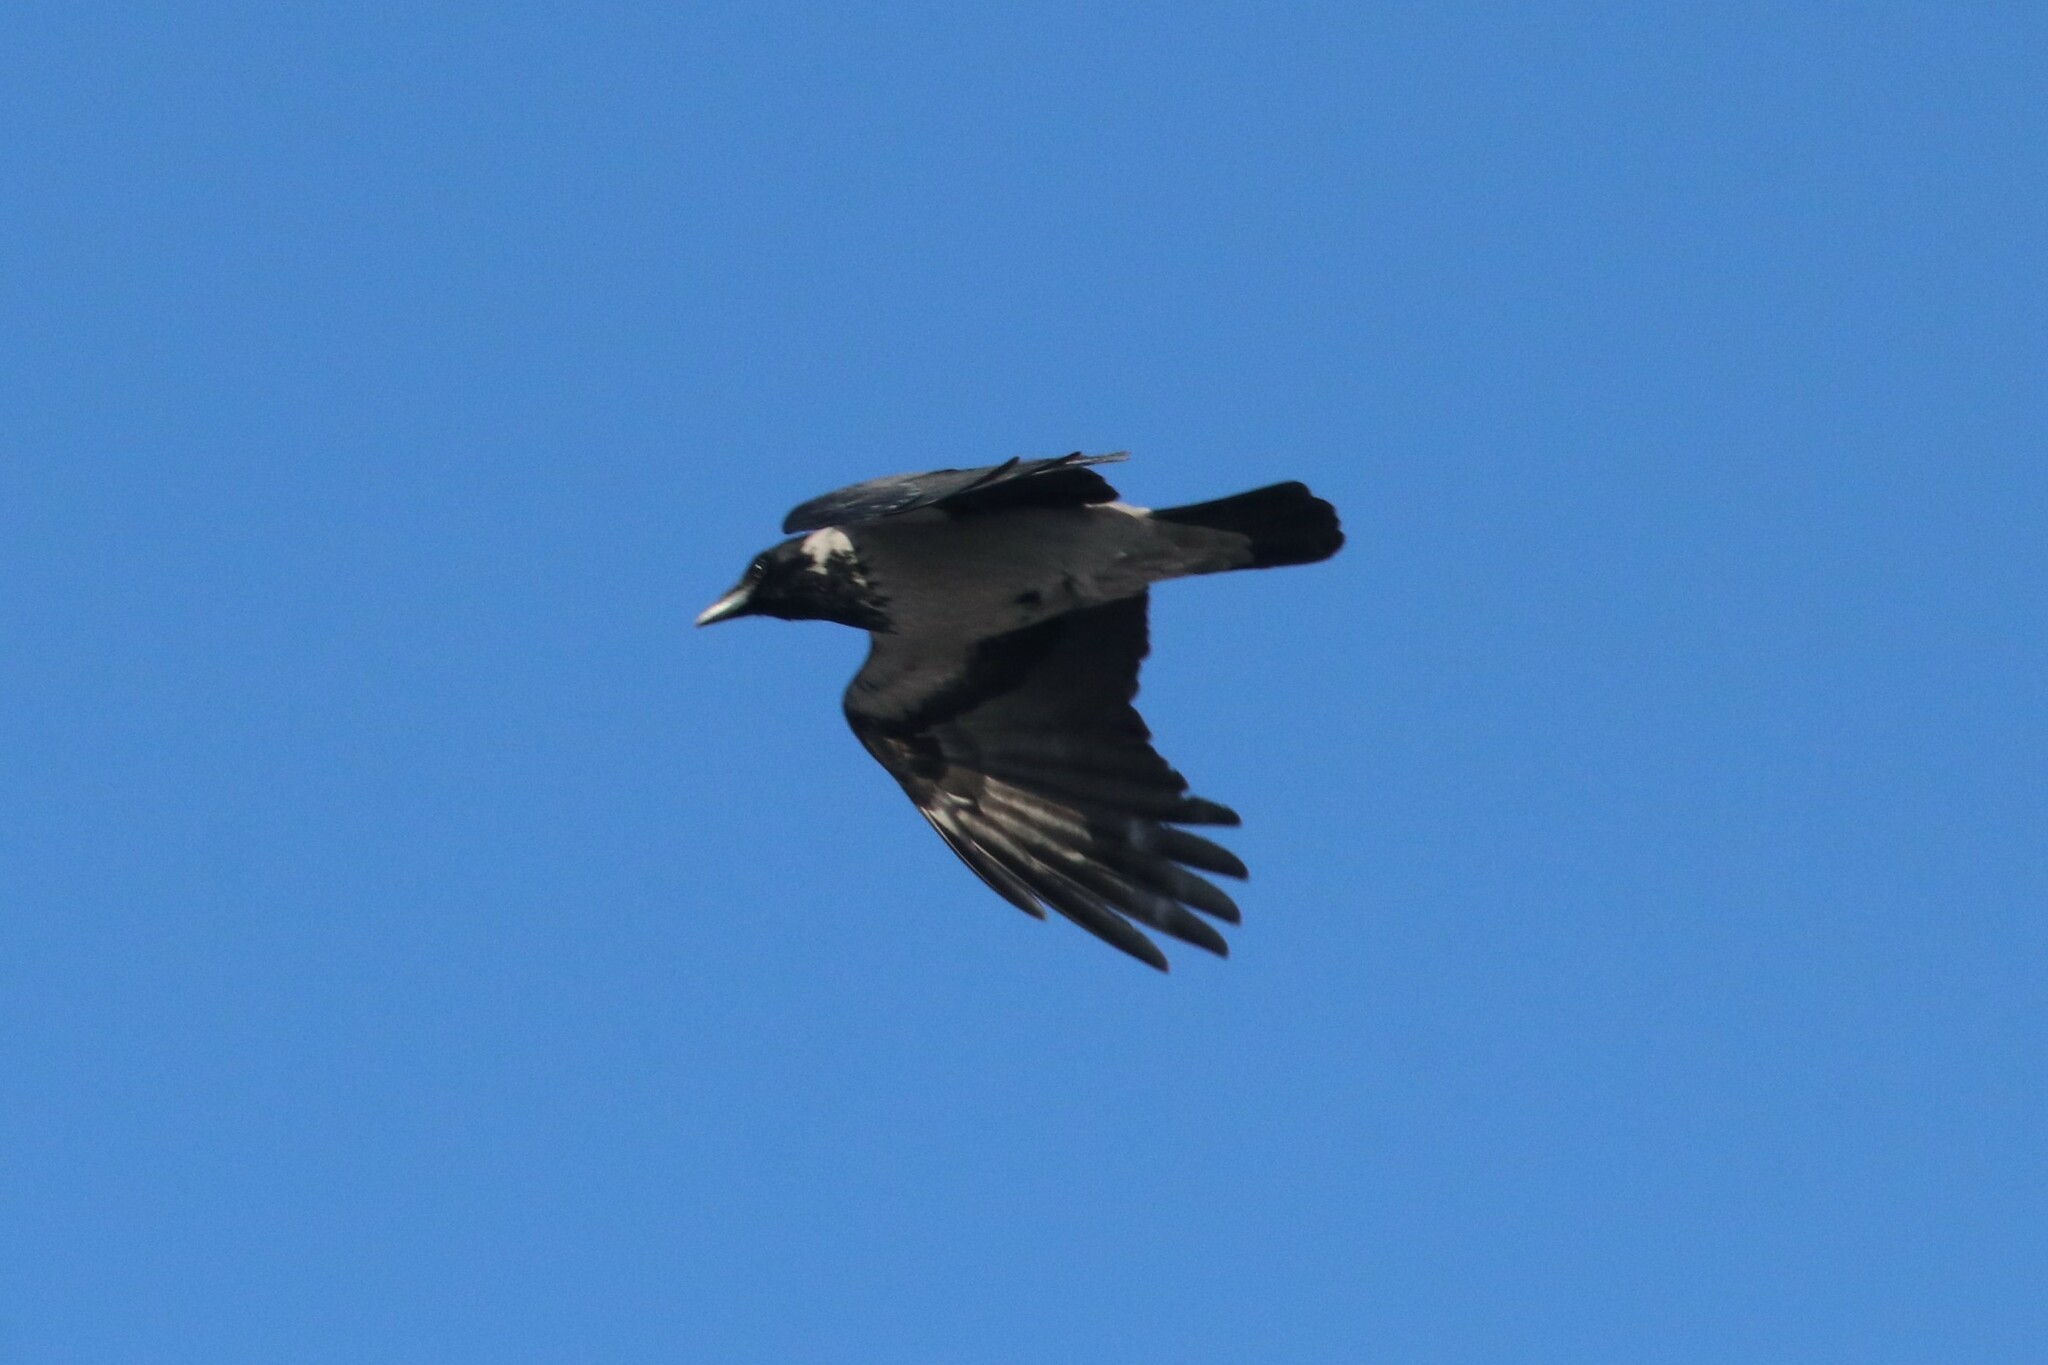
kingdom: Animalia
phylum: Chordata
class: Aves
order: Passeriformes
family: Corvidae
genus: Corvus
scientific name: Corvus cornix
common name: Hooded crow
